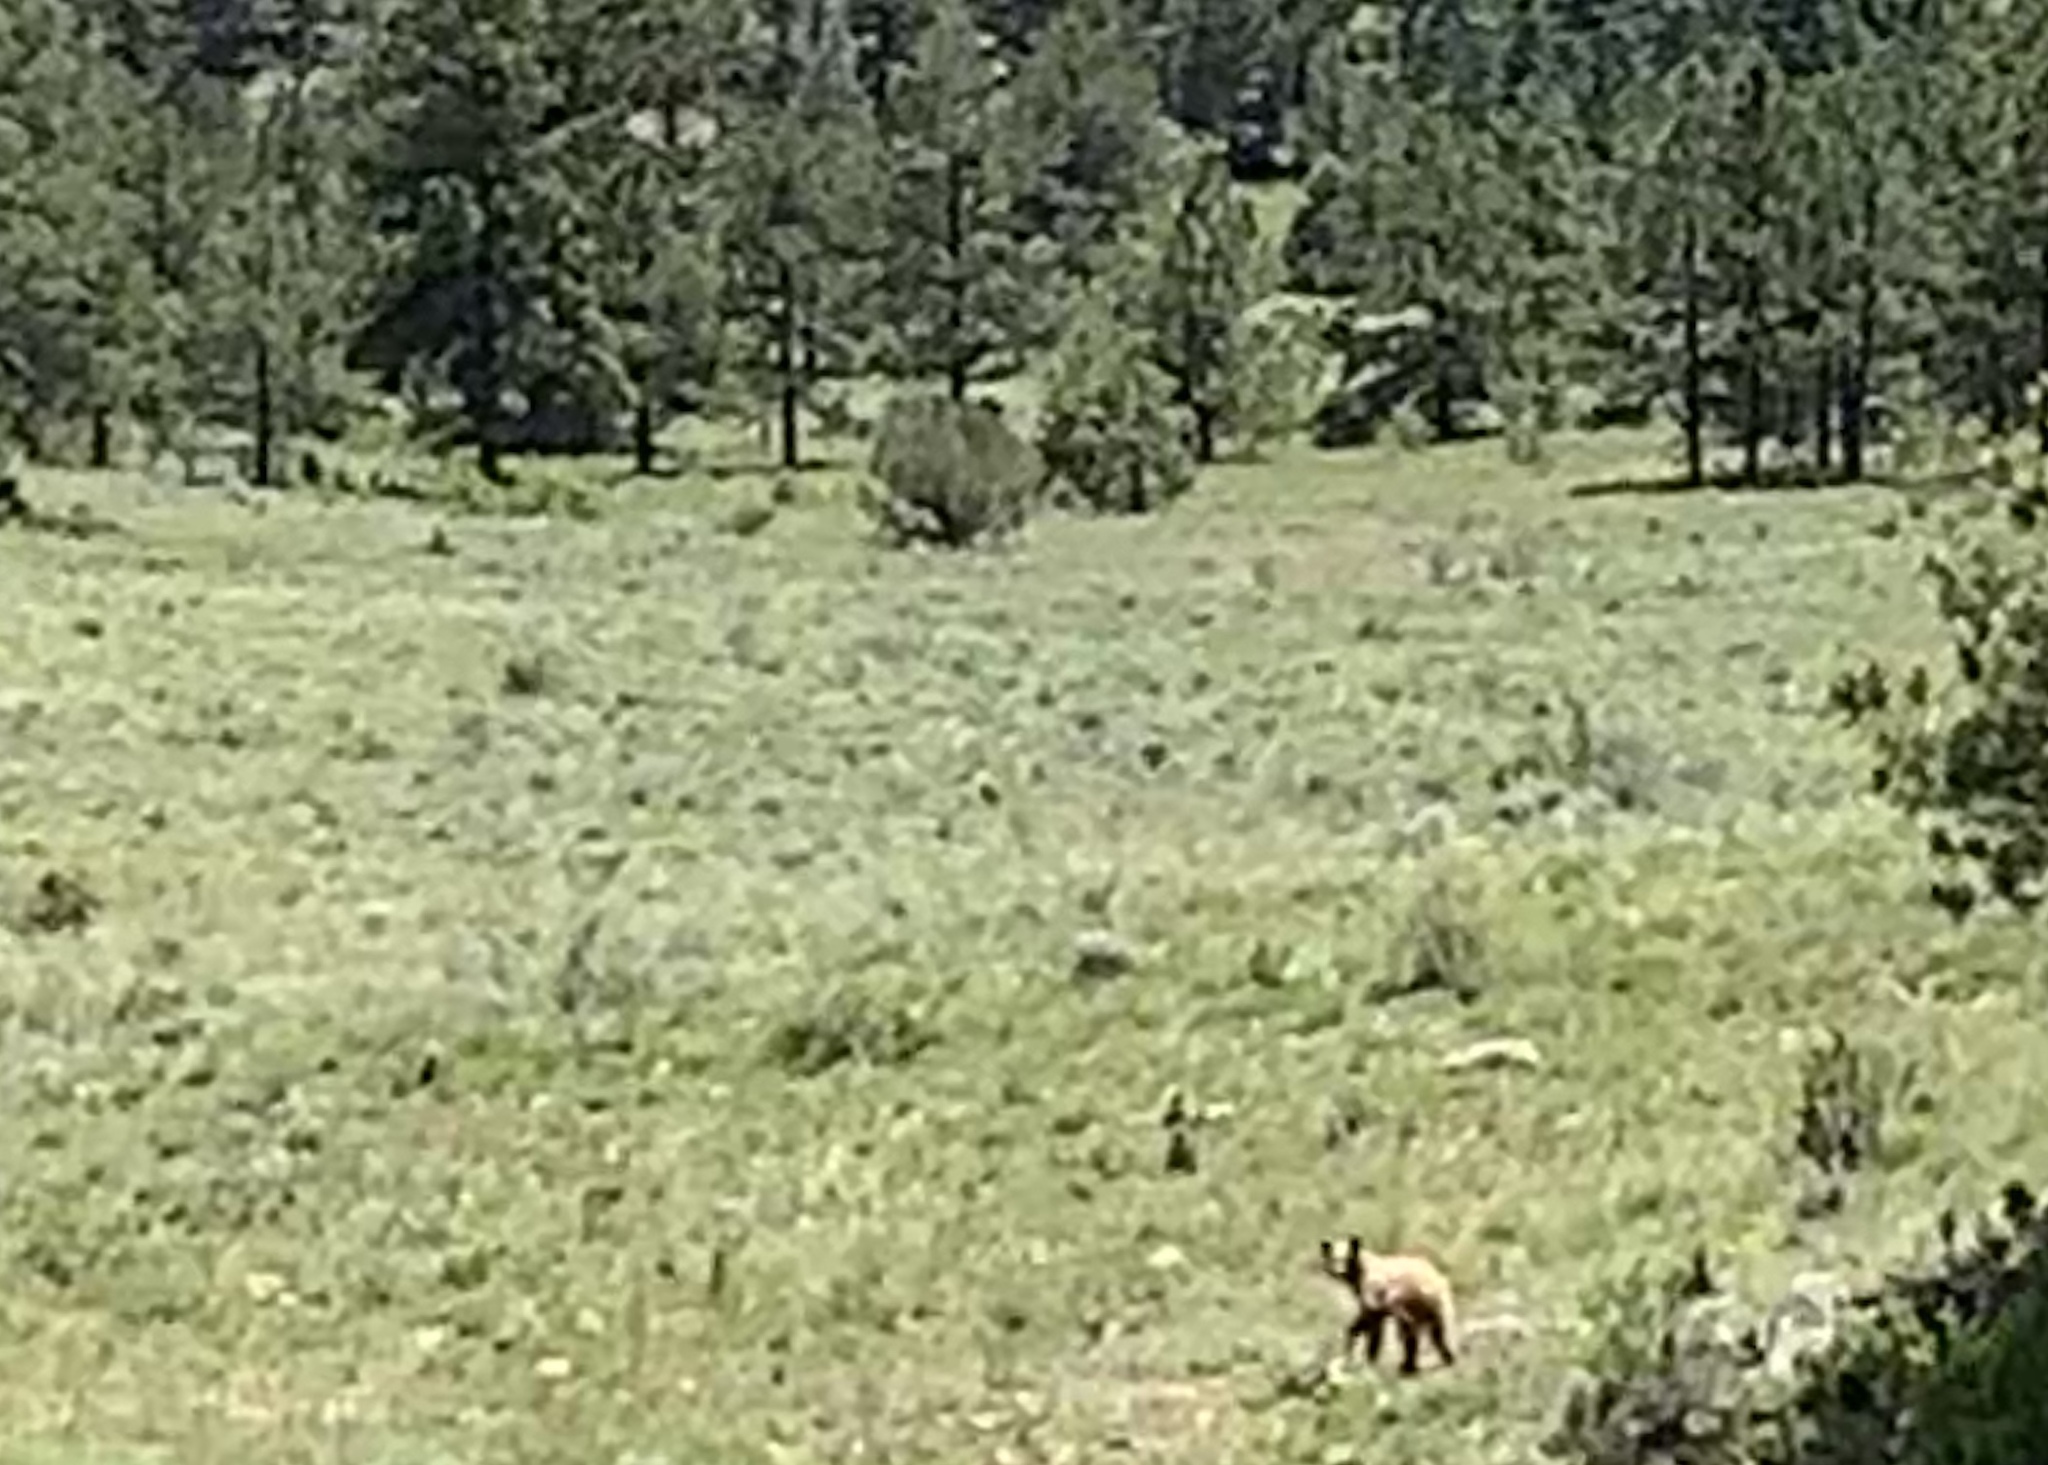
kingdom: Animalia
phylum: Chordata
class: Mammalia
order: Carnivora
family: Ursidae
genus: Ursus
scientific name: Ursus americanus
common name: American black bear
